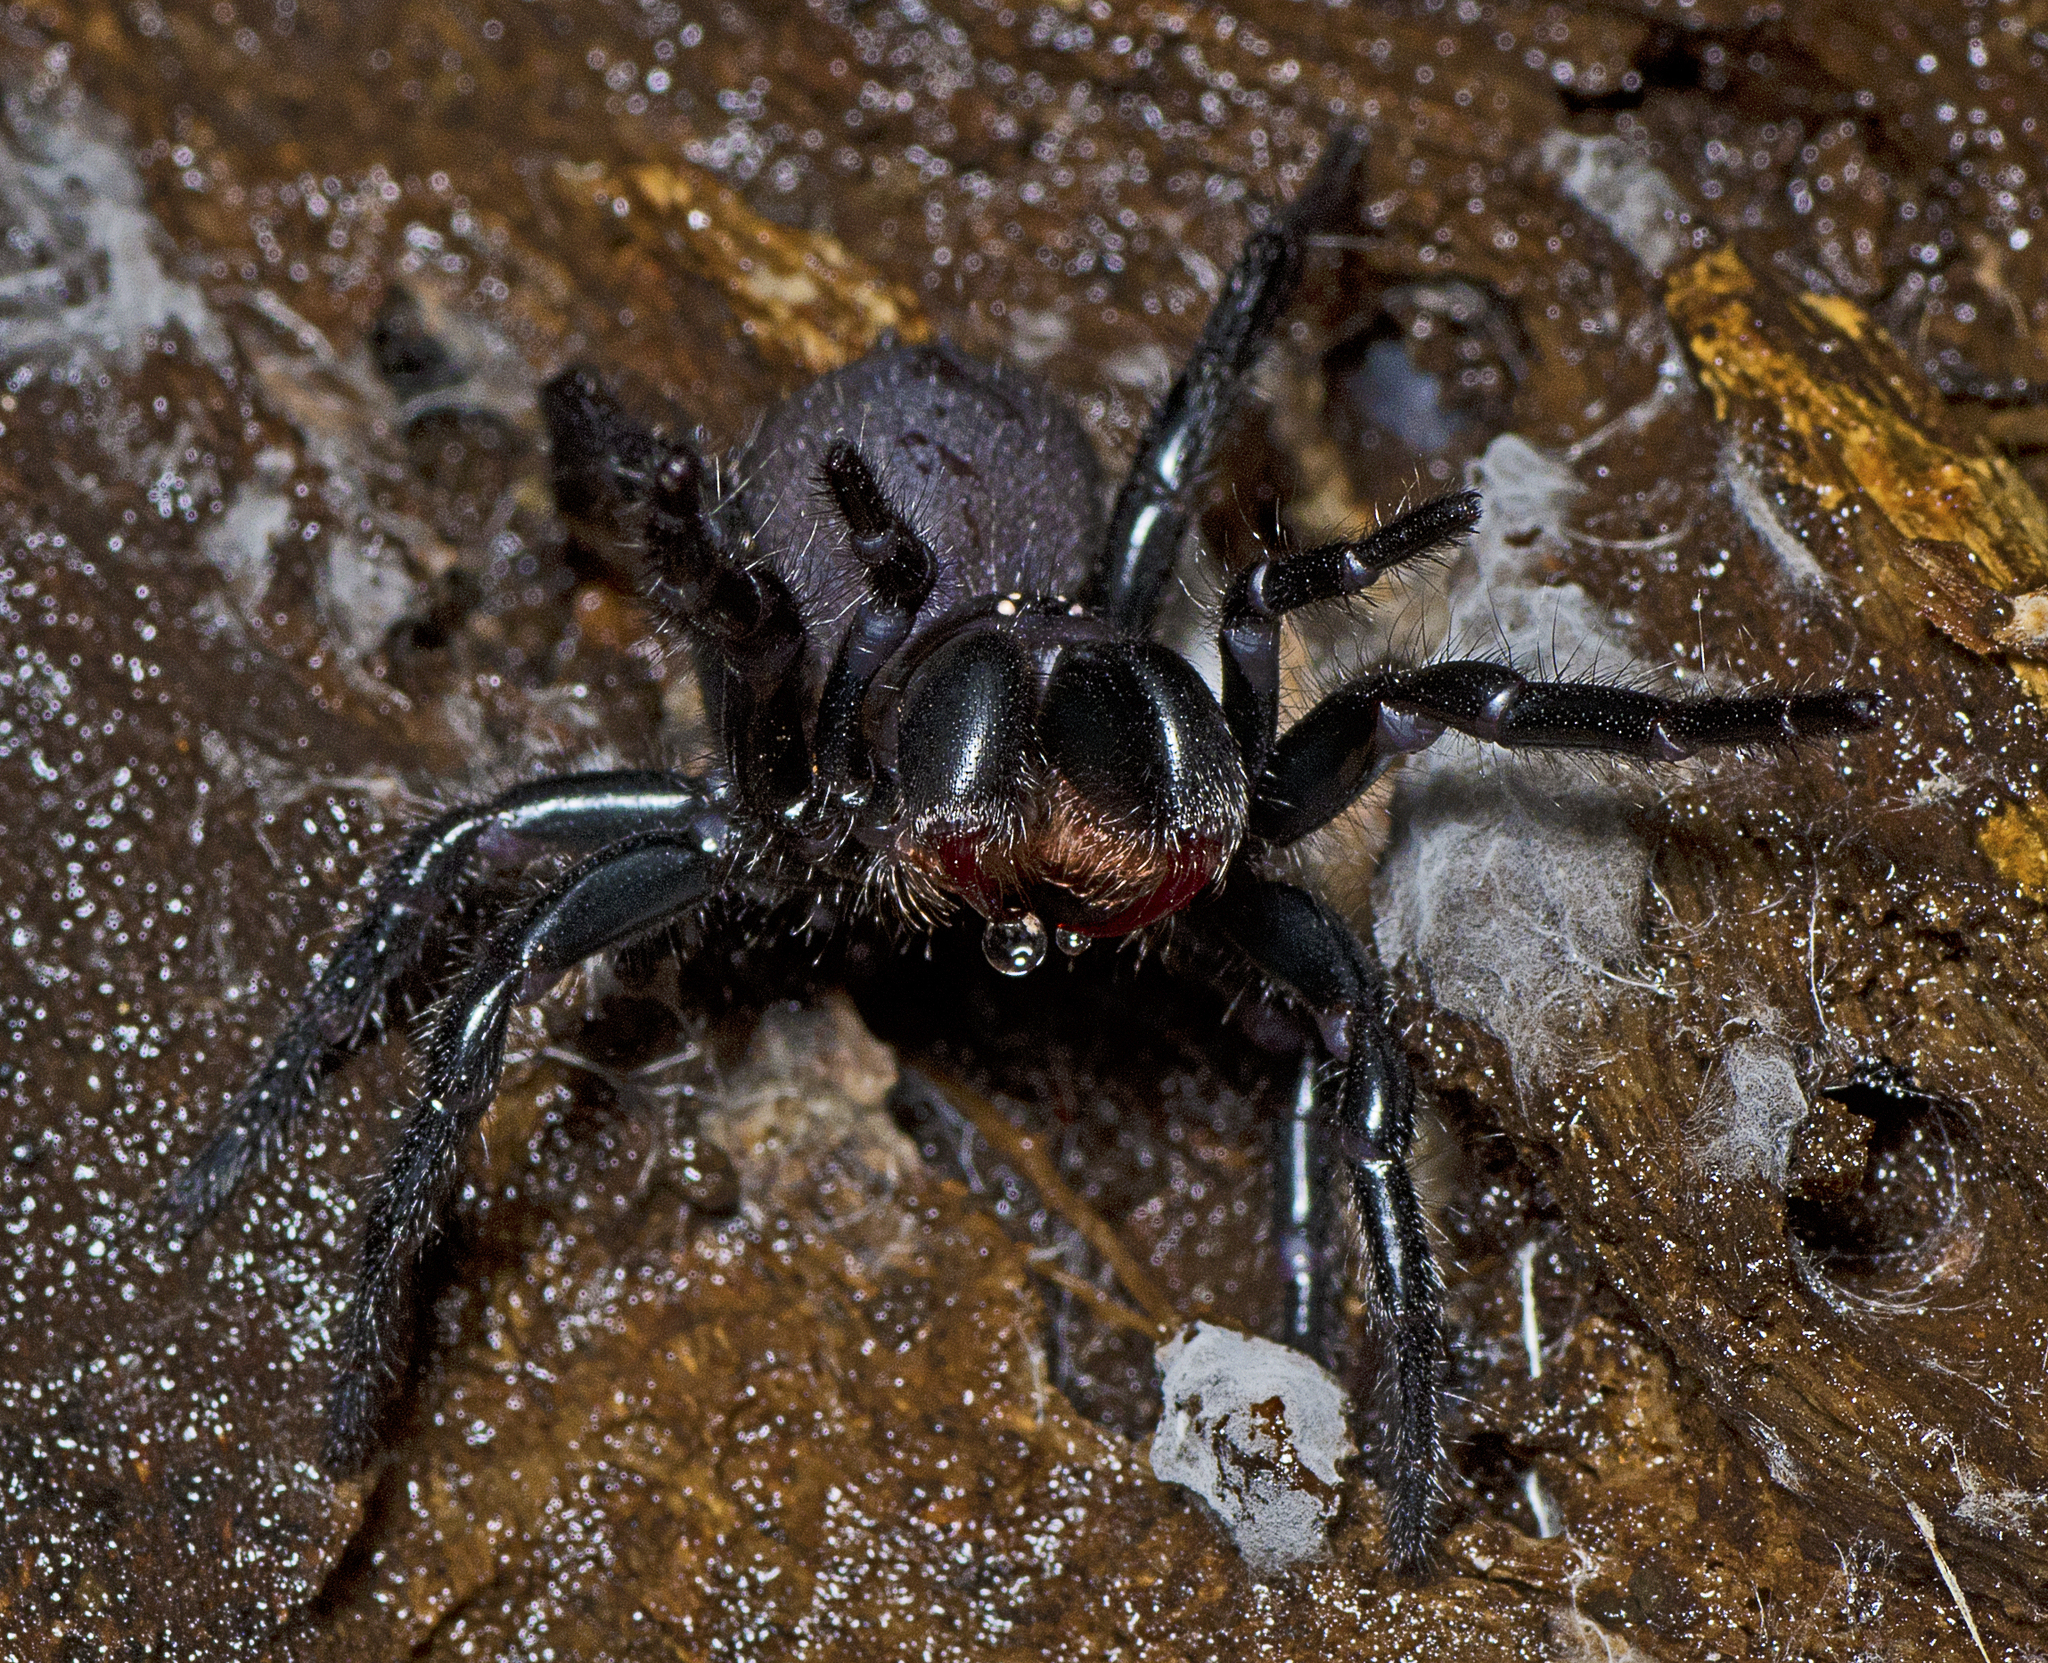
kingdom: Animalia
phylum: Arthropoda
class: Arachnida
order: Araneae
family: Atracidae
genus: Hadronyche
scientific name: Hadronyche infensa
